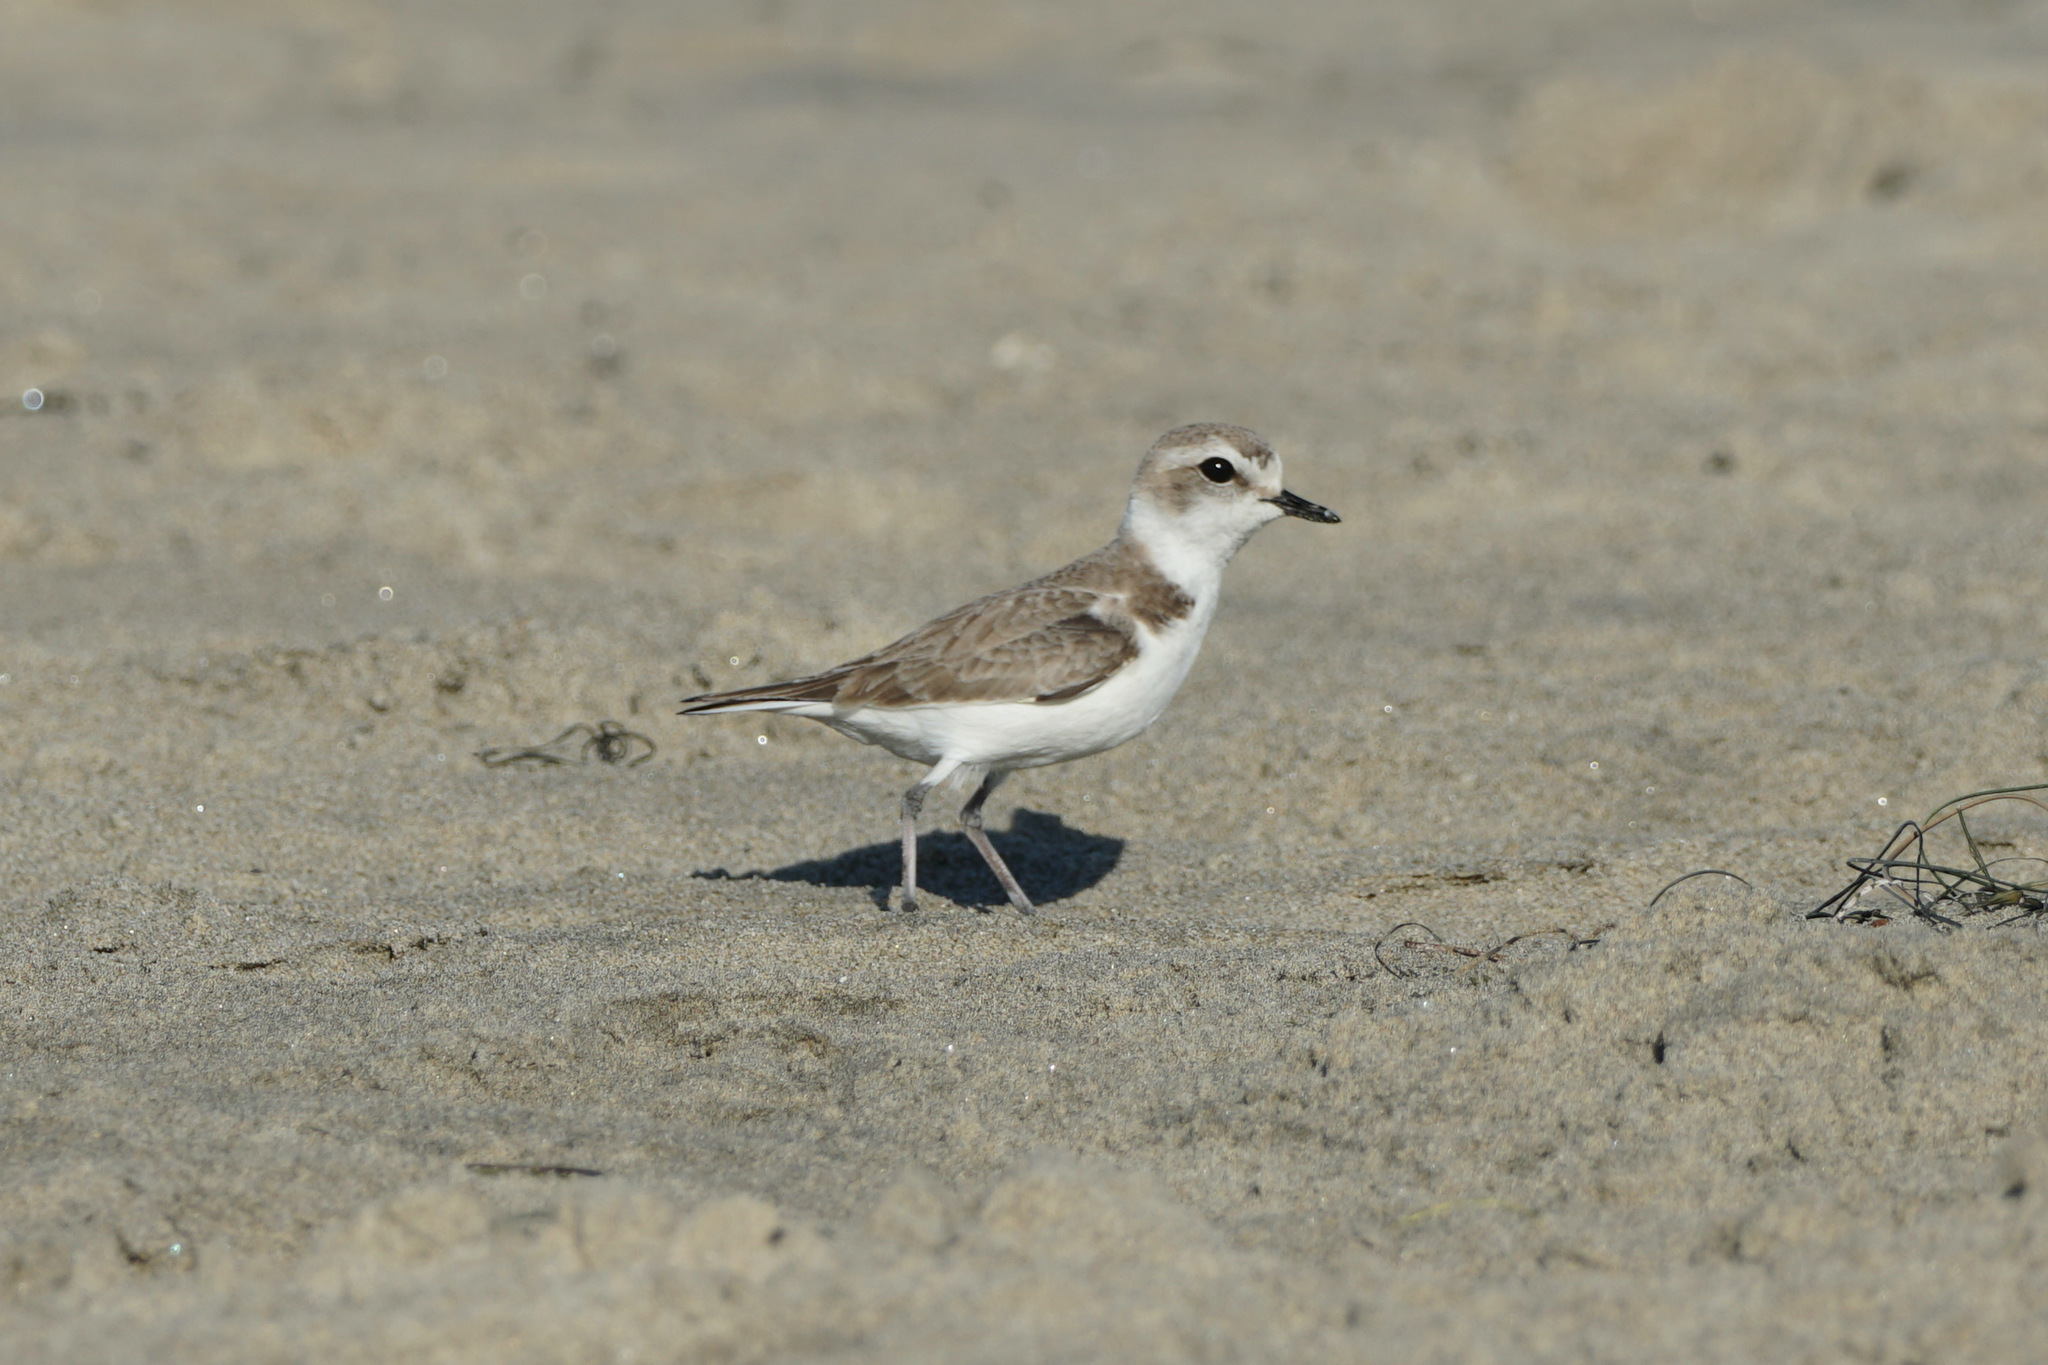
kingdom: Animalia
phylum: Chordata
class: Aves
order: Charadriiformes
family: Charadriidae
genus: Anarhynchus
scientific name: Anarhynchus
